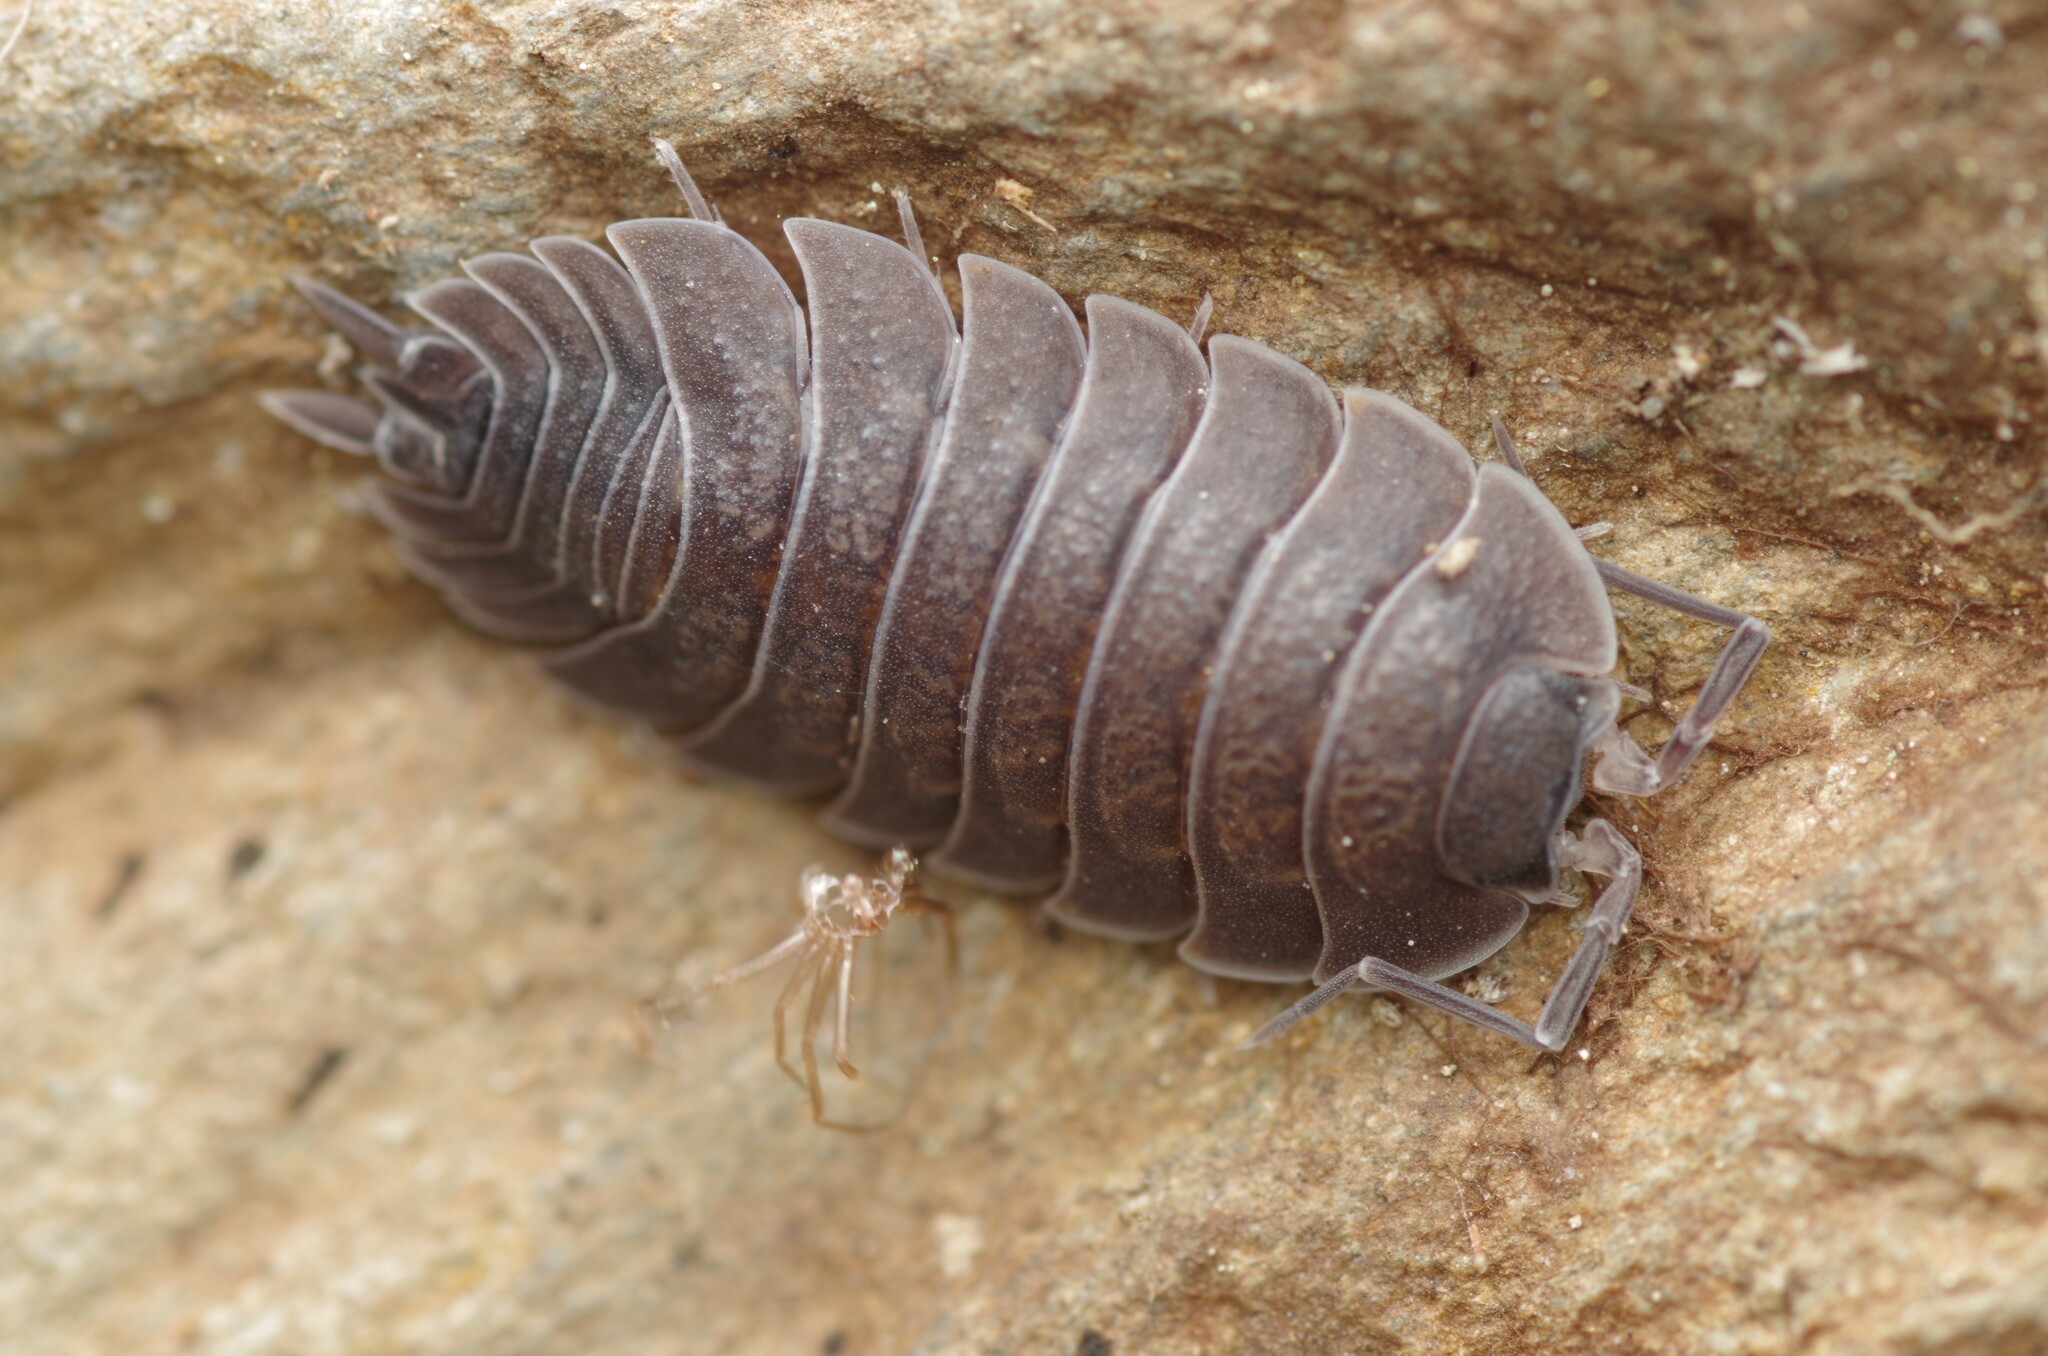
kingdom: Animalia
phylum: Arthropoda
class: Malacostraca
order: Isopoda
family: Porcellionidae
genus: Porcellio
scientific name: Porcellio violaceus
